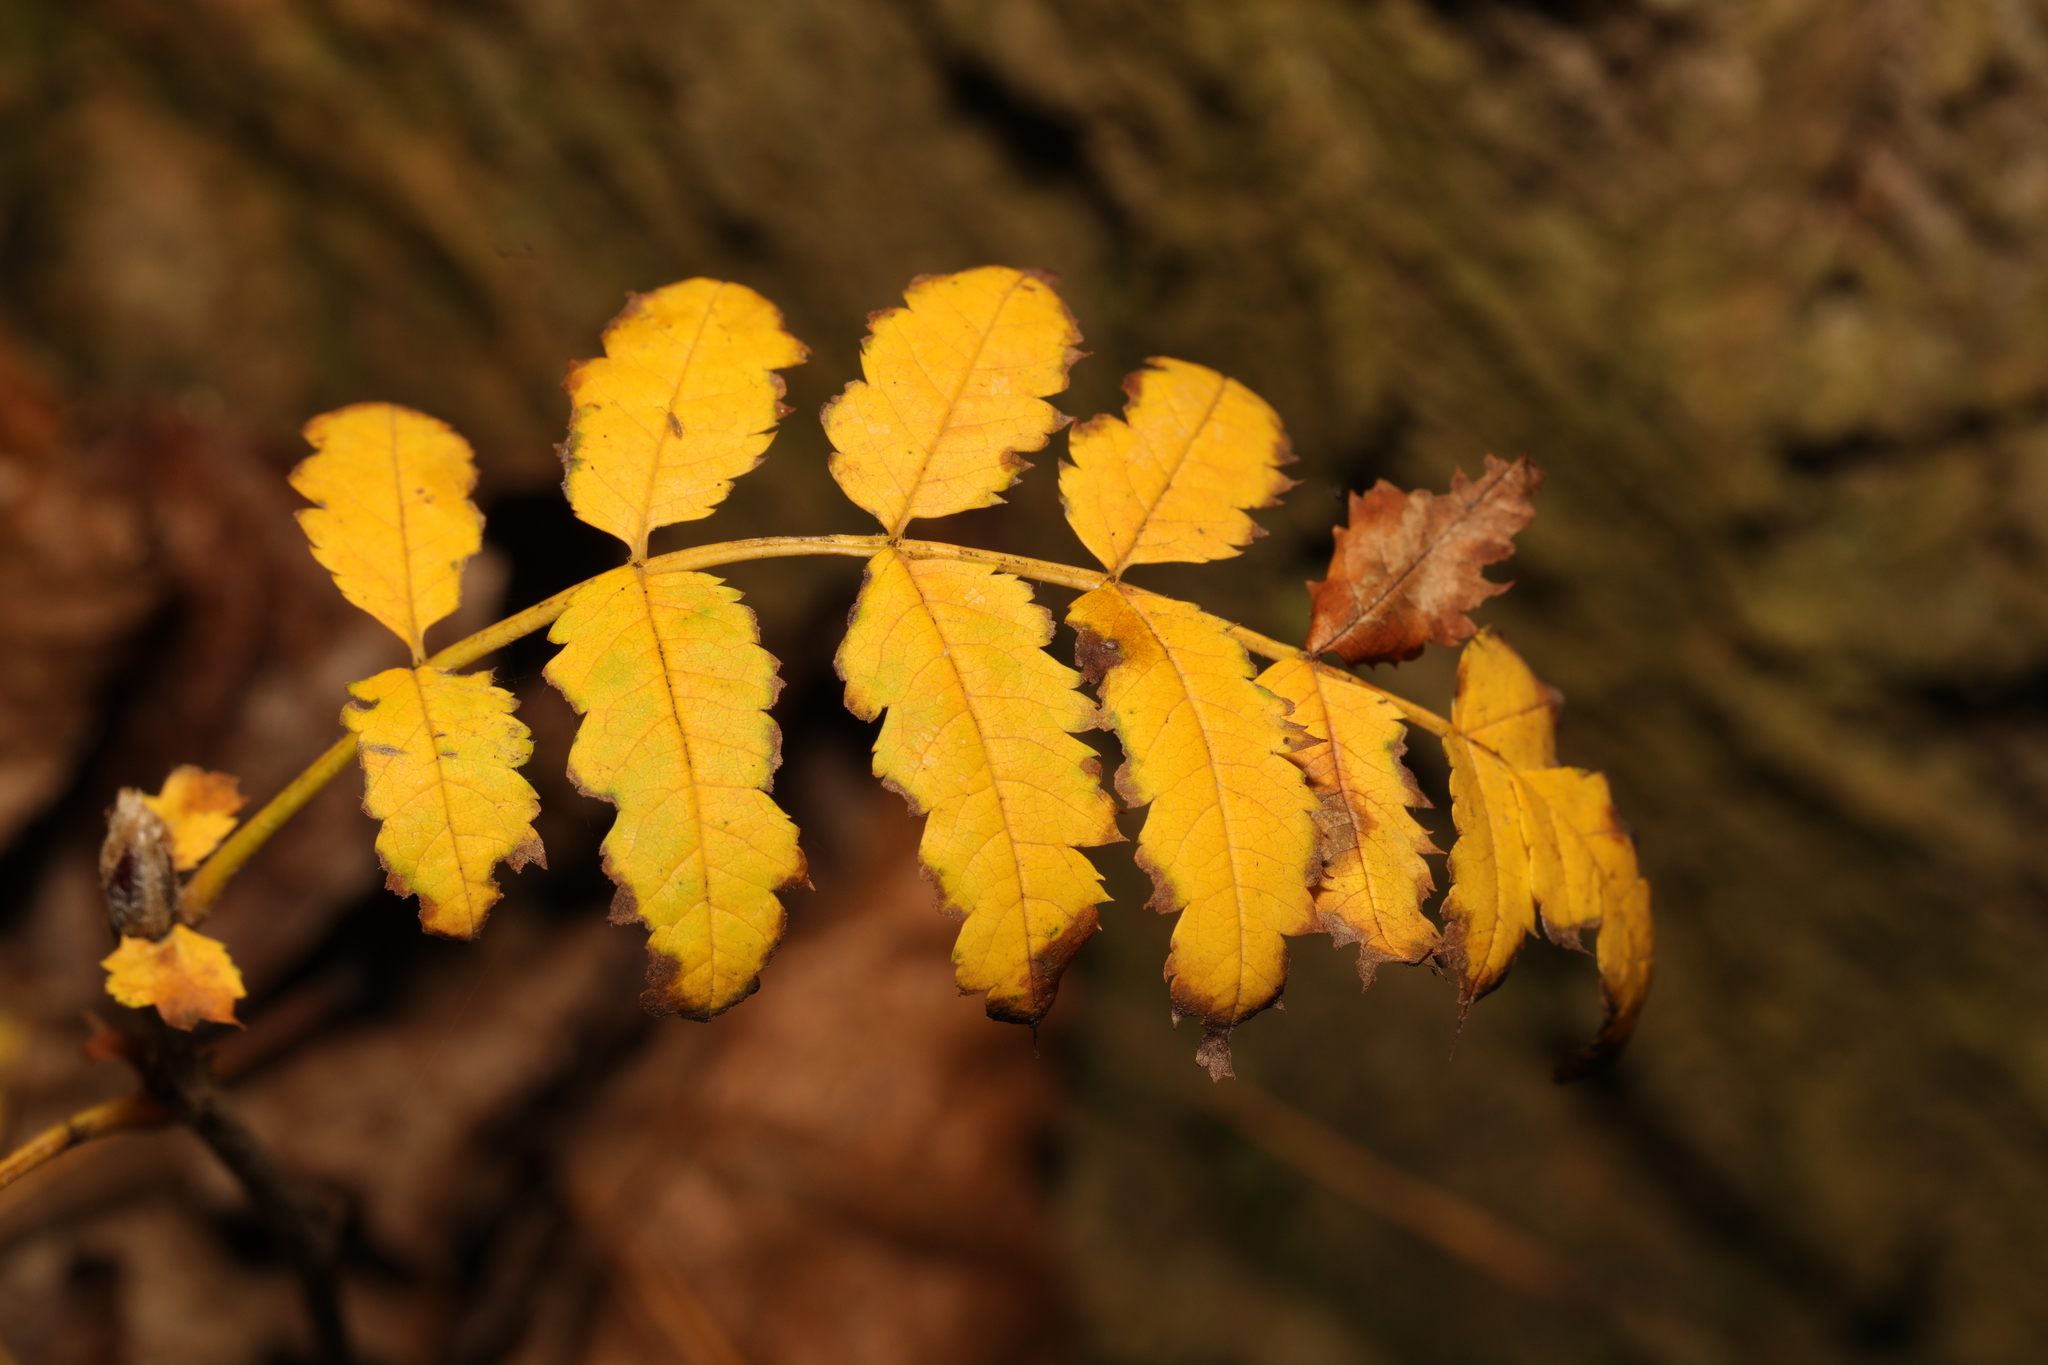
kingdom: Plantae
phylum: Tracheophyta
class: Magnoliopsida
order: Rosales
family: Rosaceae
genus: Sorbus
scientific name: Sorbus aucuparia
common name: Rowan
